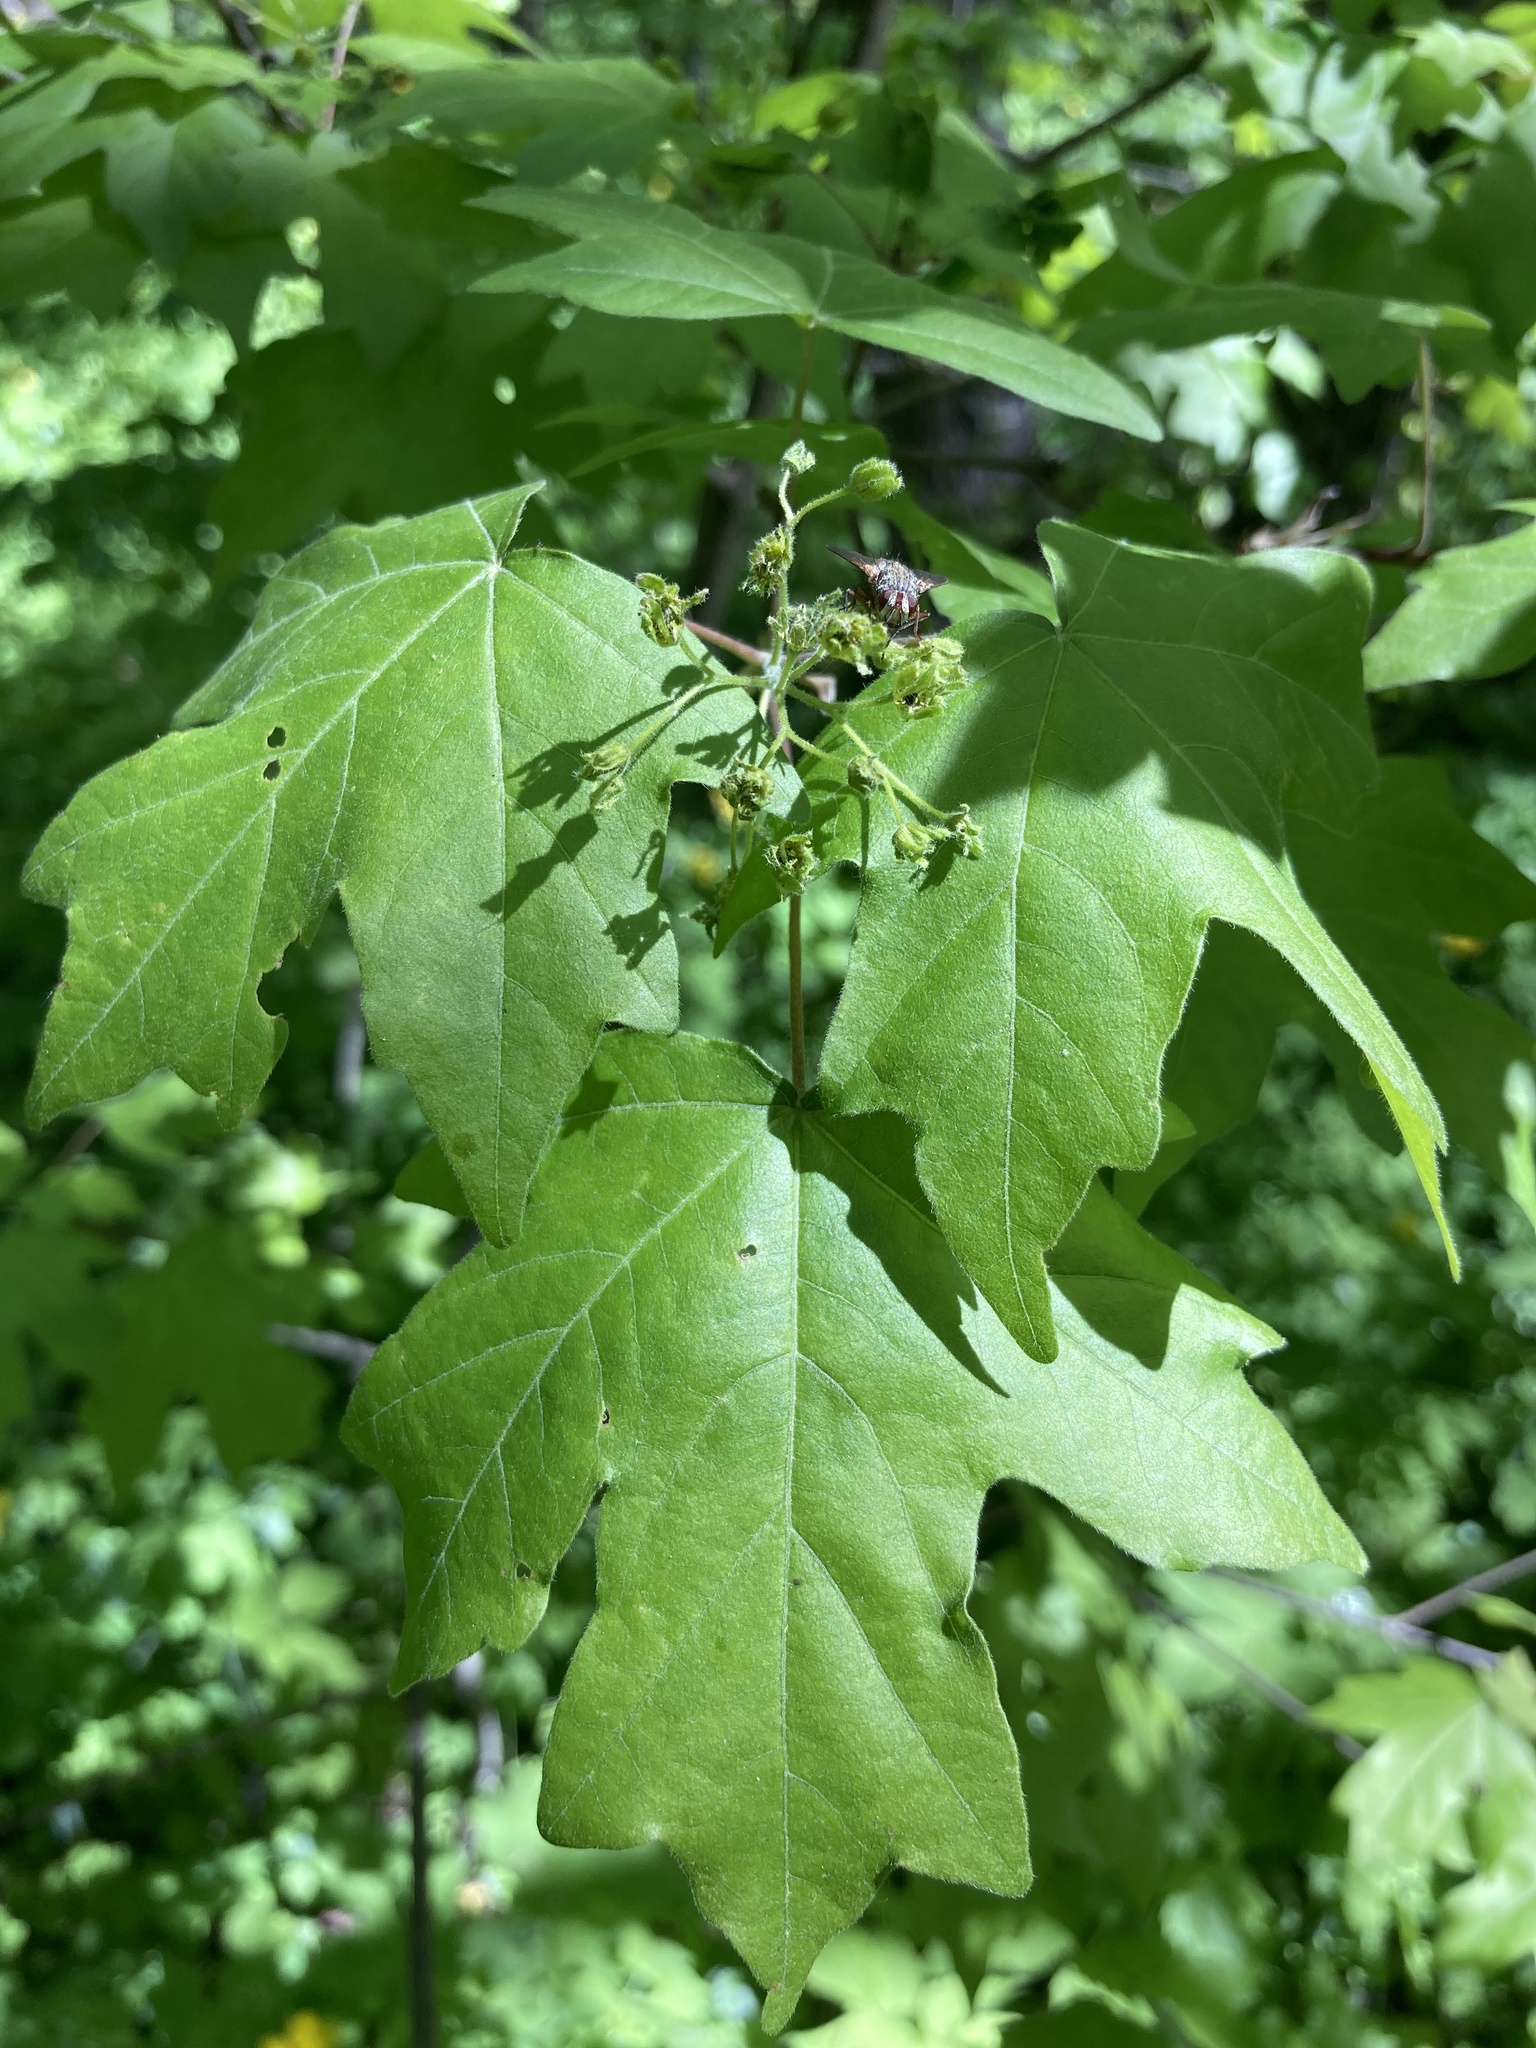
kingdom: Plantae
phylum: Tracheophyta
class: Magnoliopsida
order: Sapindales
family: Sapindaceae
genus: Acer
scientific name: Acer campestre
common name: Field maple
